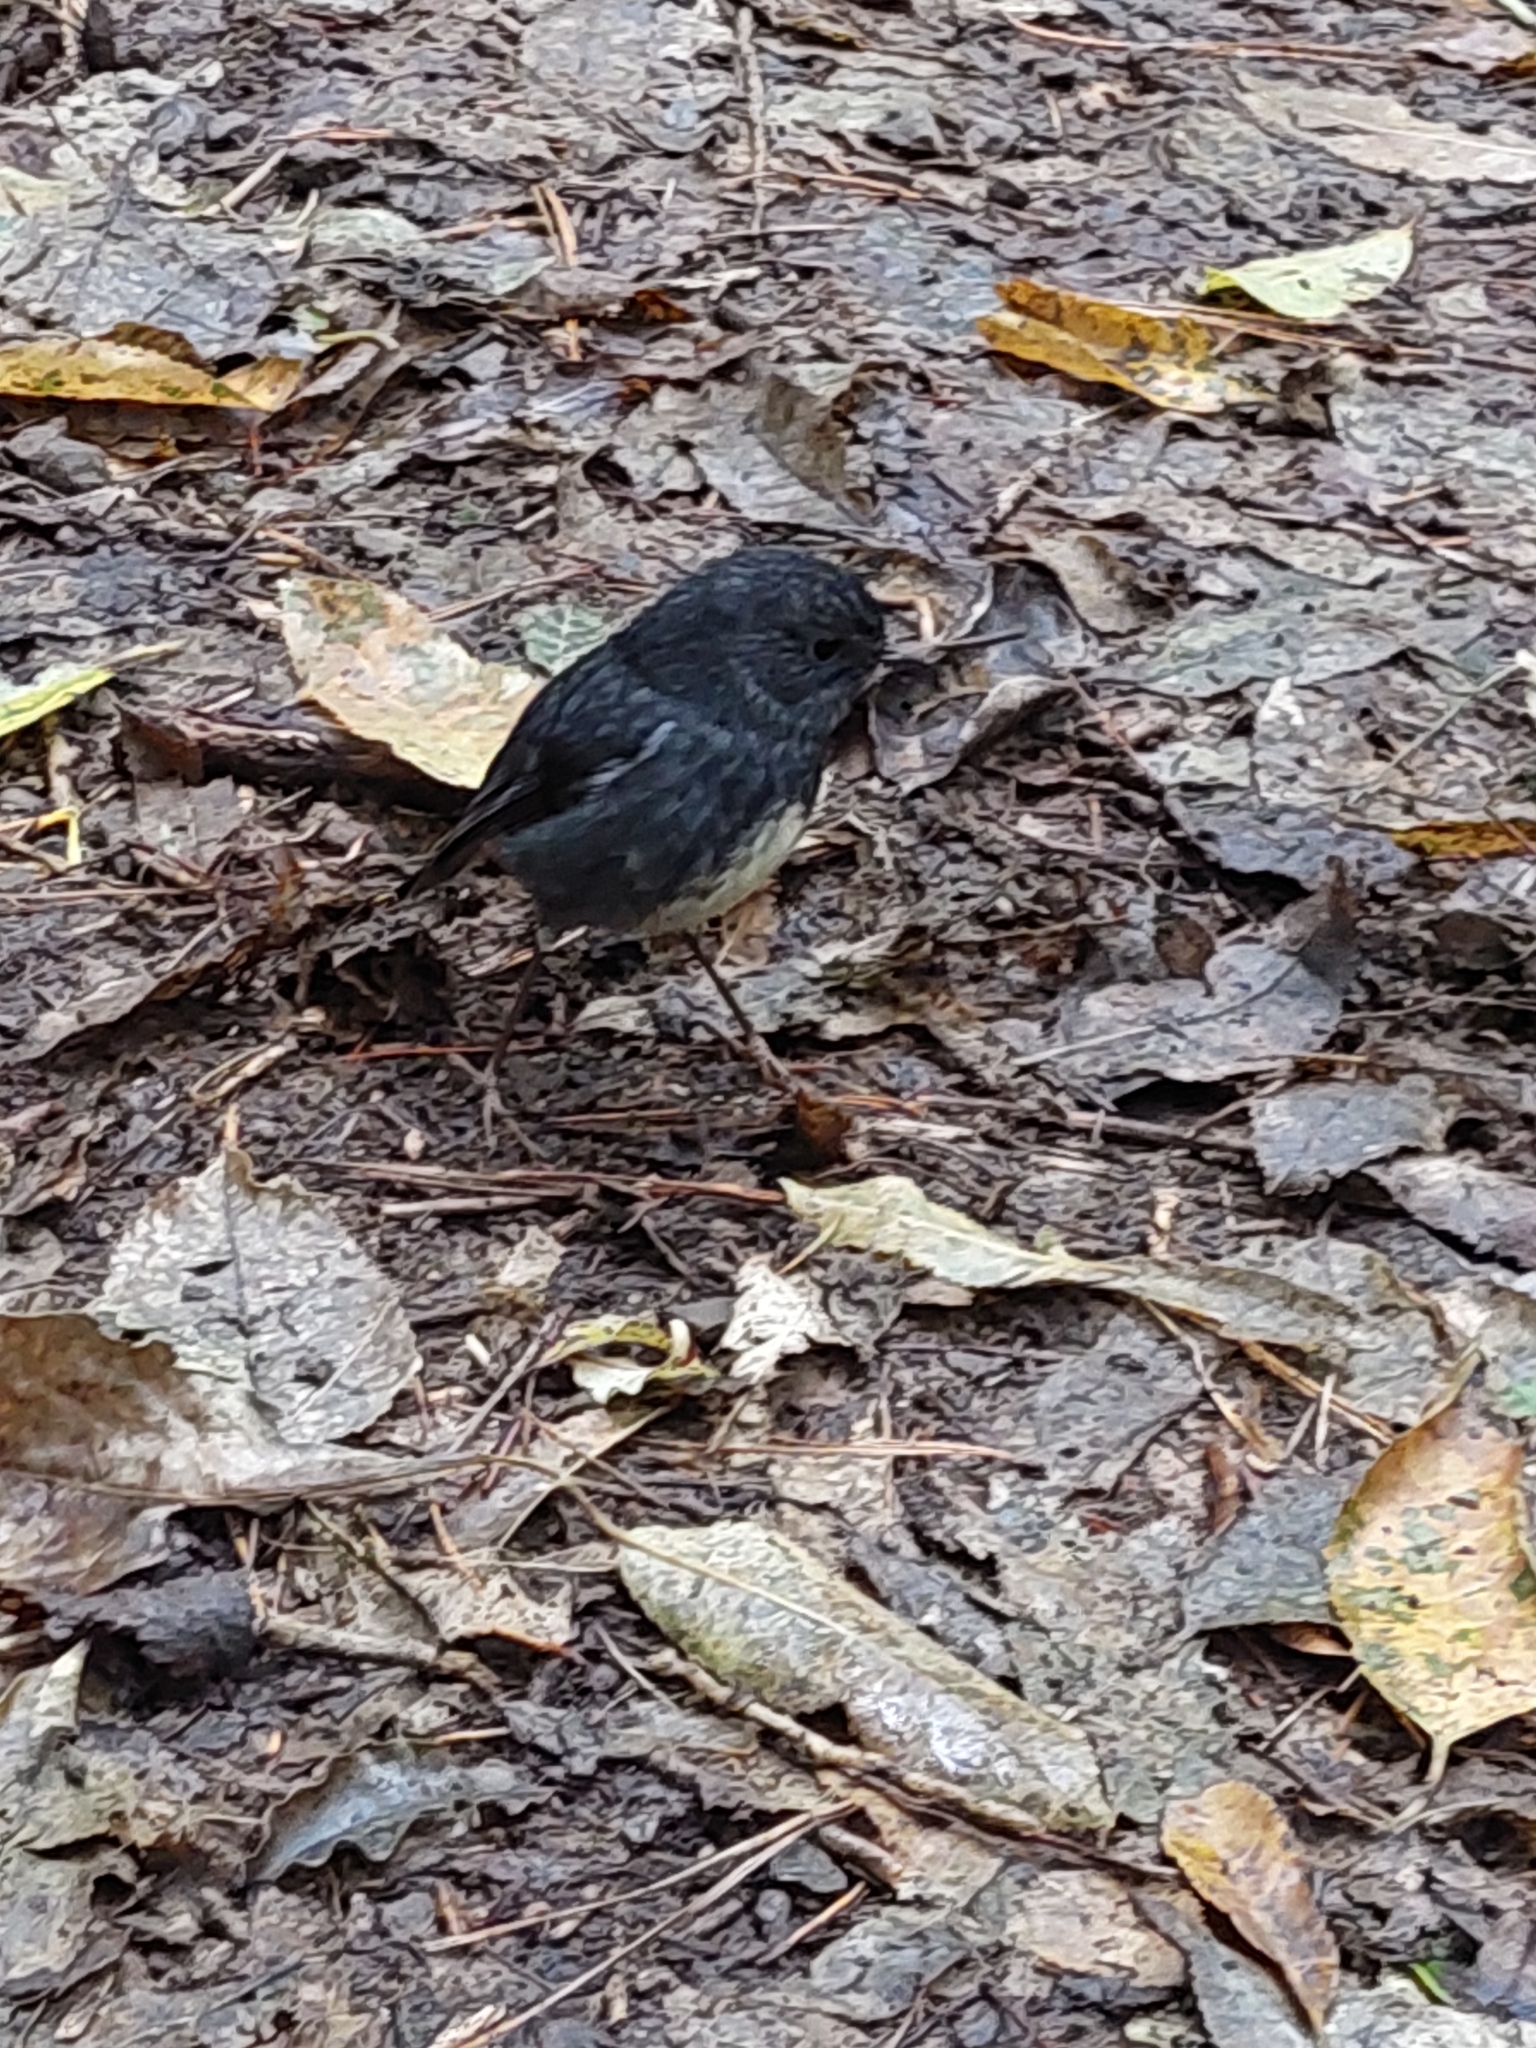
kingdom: Animalia
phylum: Chordata
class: Aves
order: Passeriformes
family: Petroicidae
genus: Petroica
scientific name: Petroica australis
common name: New zealand robin
